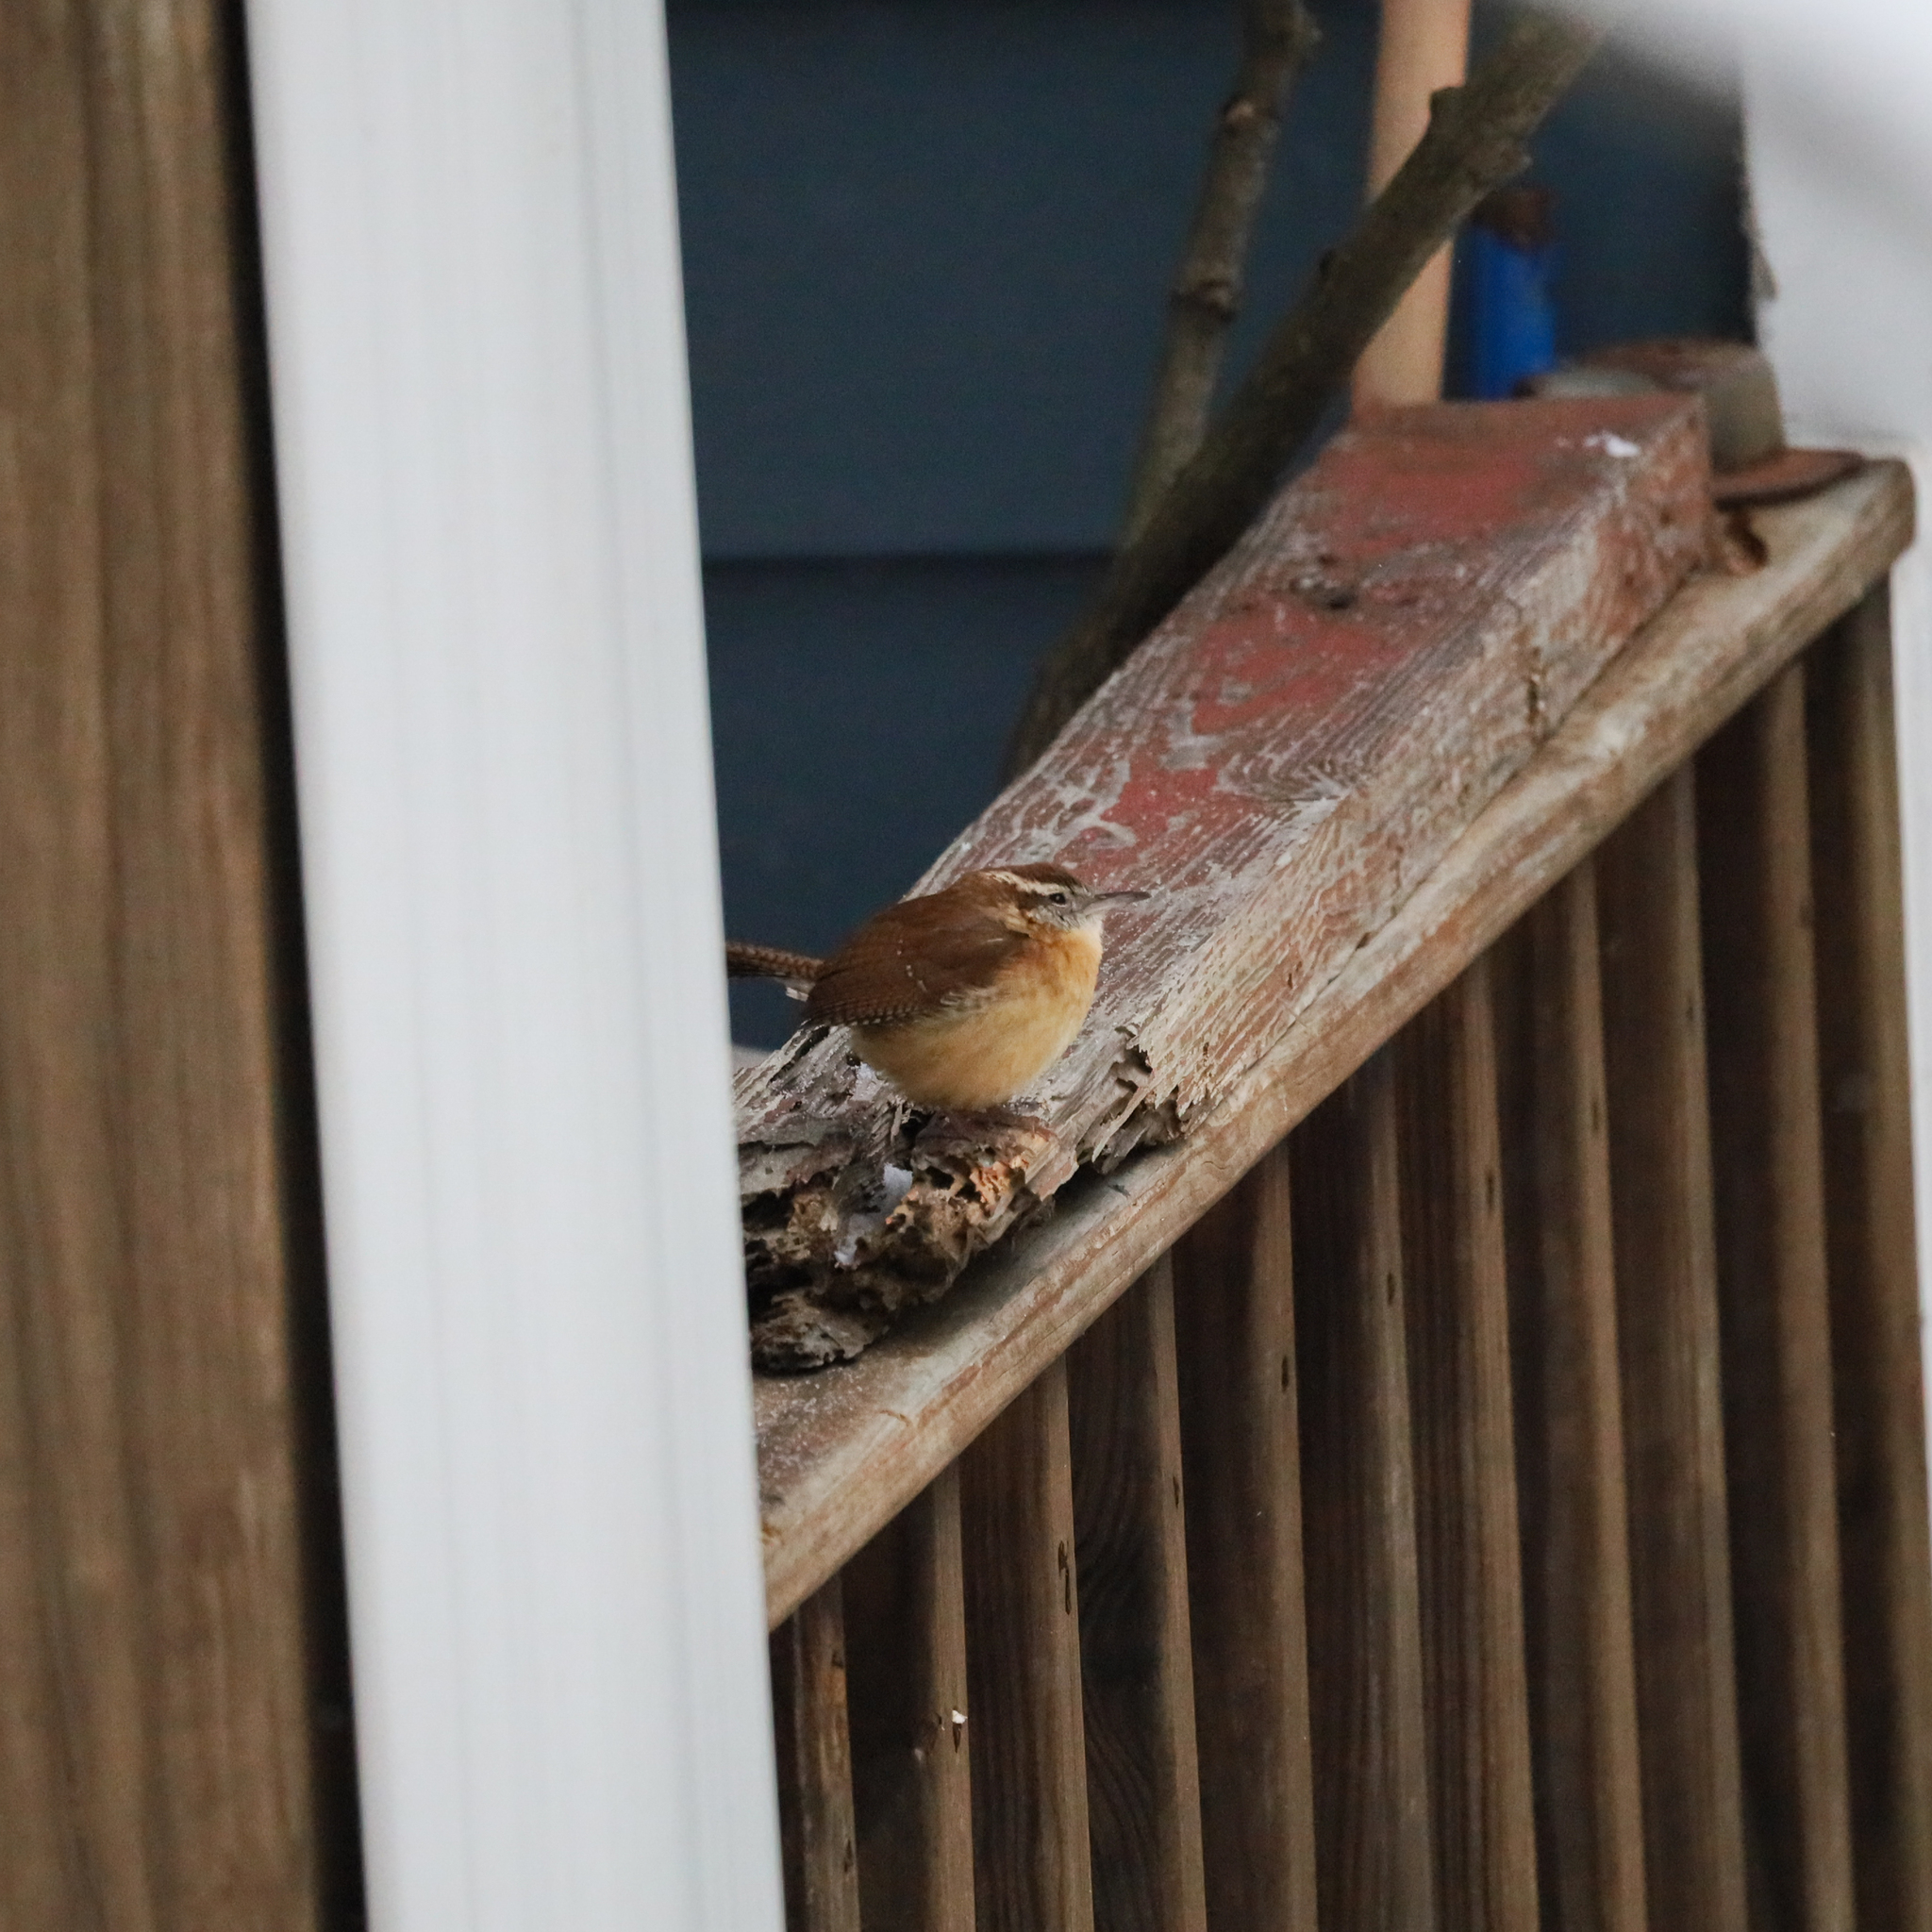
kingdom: Animalia
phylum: Chordata
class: Aves
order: Passeriformes
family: Troglodytidae
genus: Thryothorus
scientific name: Thryothorus ludovicianus
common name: Carolina wren
